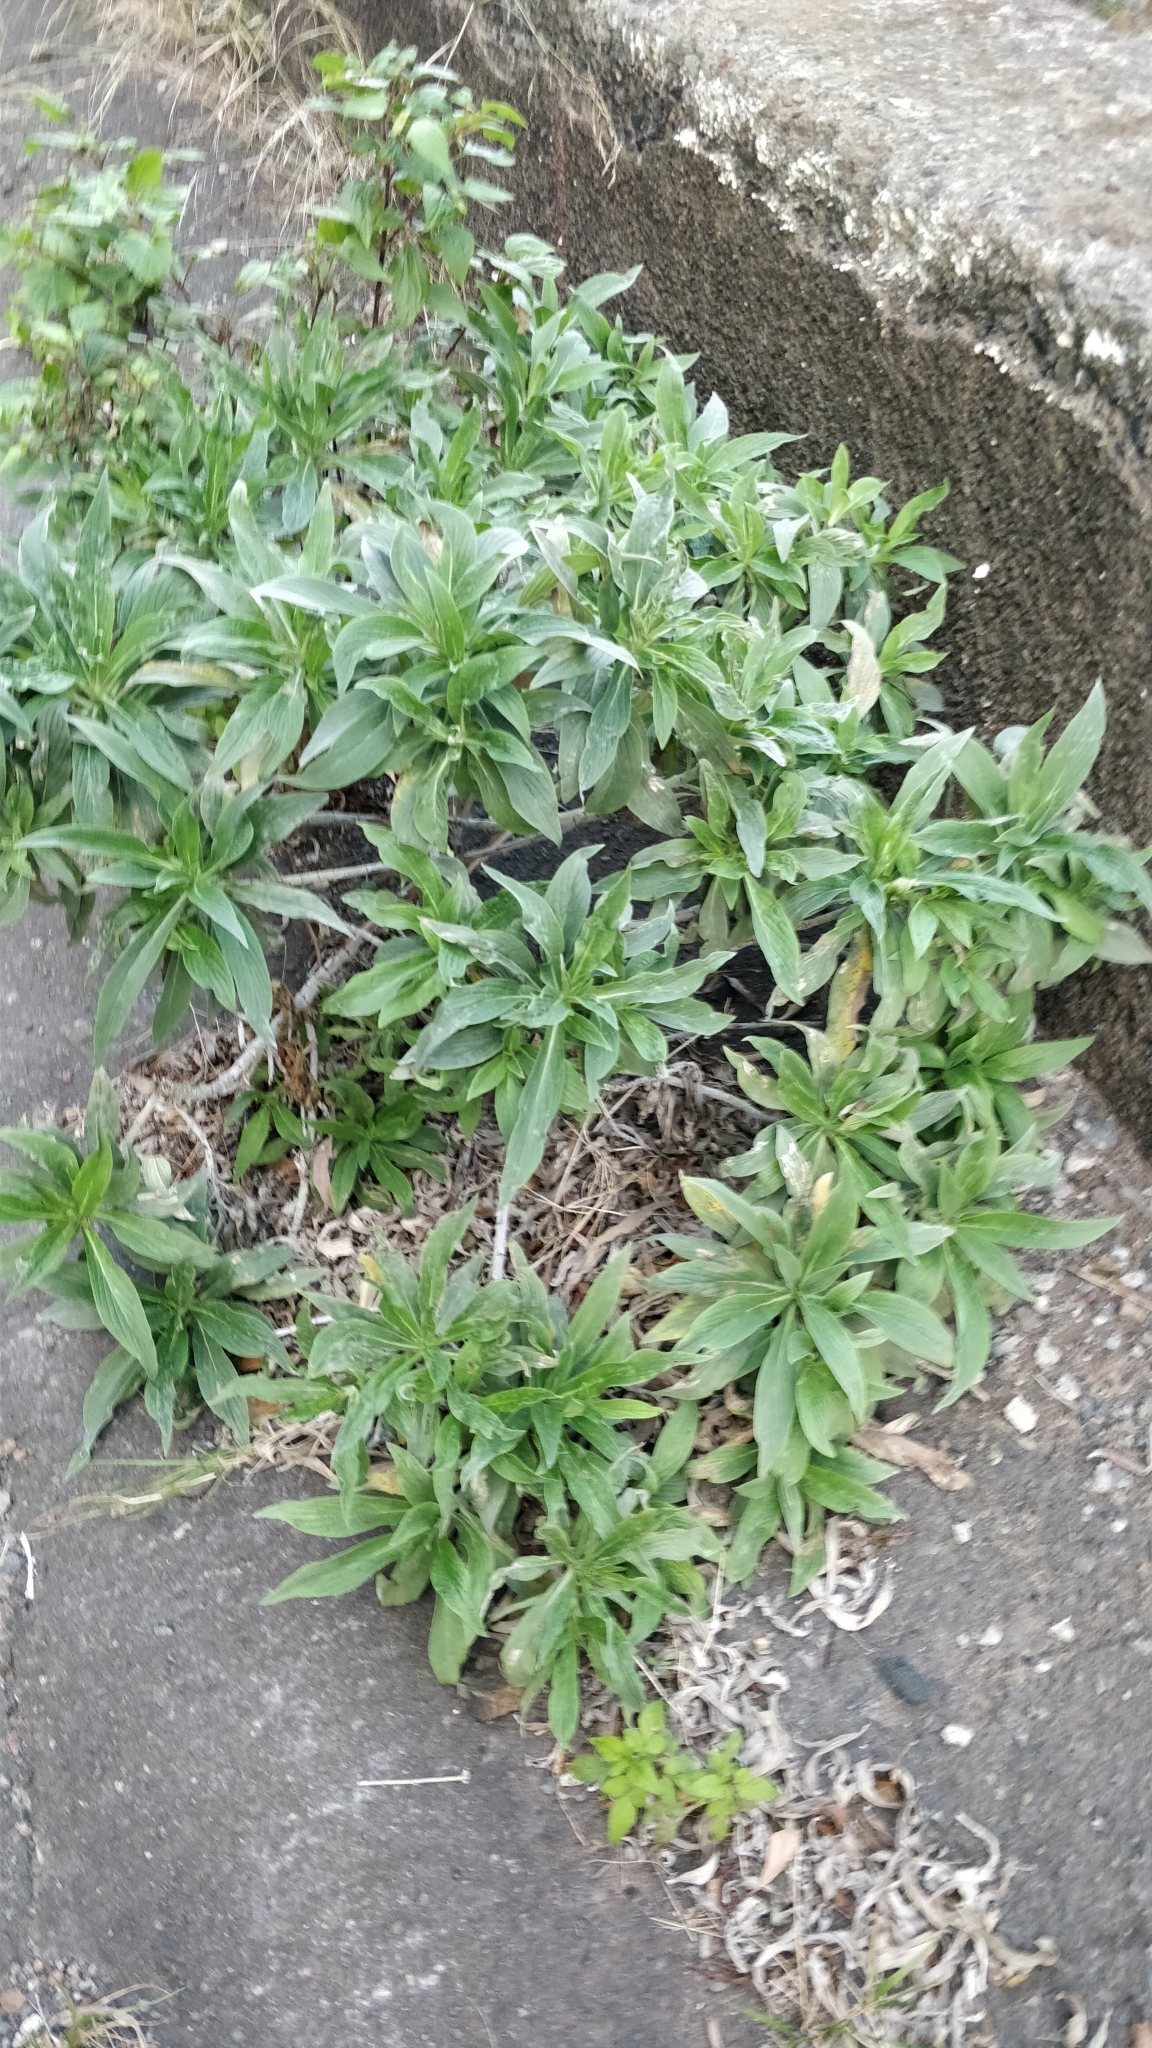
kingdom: Plantae
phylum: Tracheophyta
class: Magnoliopsida
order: Boraginales
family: Boraginaceae
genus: Echium
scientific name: Echium nervosum
